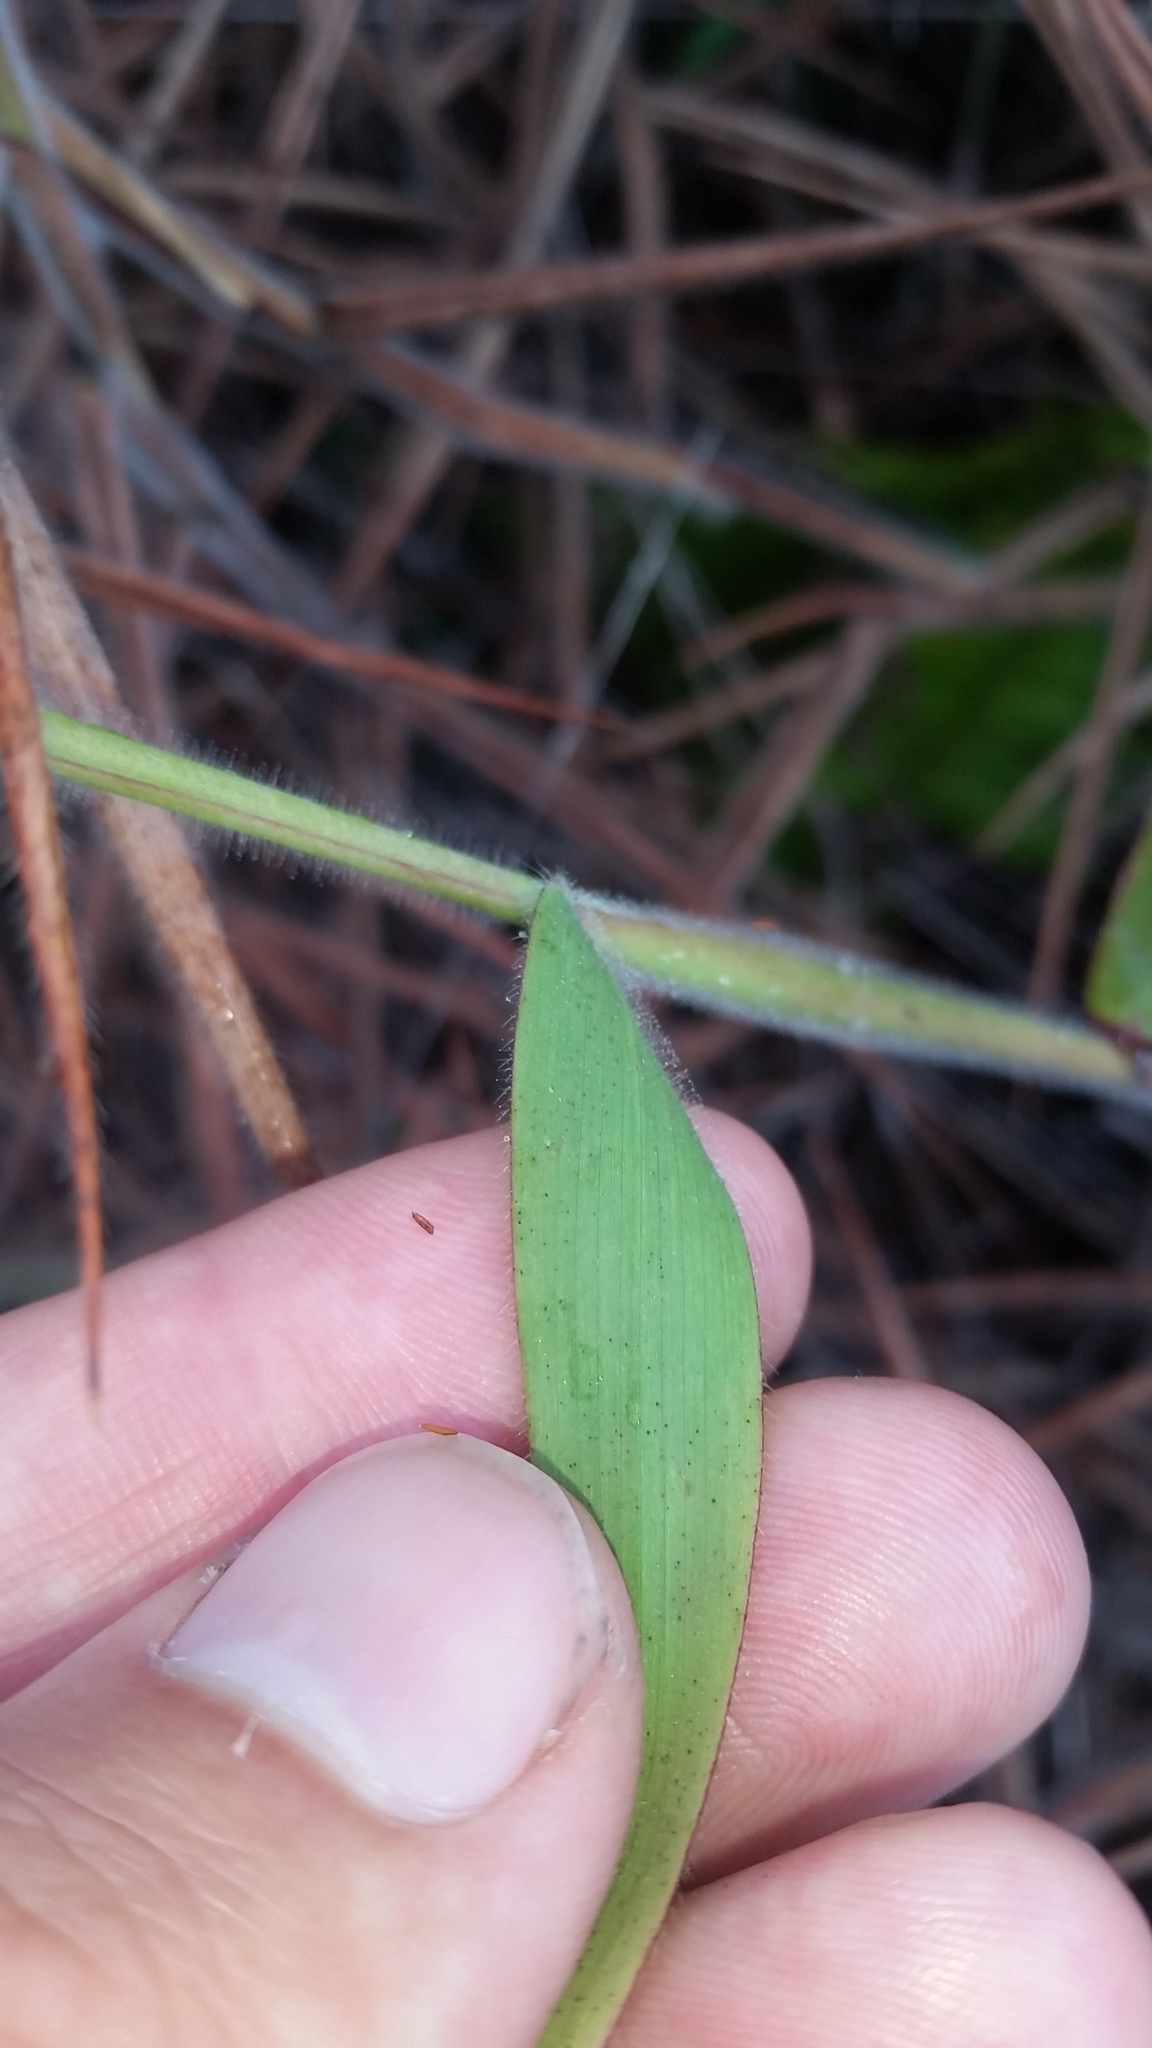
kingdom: Plantae
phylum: Tracheophyta
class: Liliopsida
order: Poales
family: Poaceae
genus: Melinis
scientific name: Melinis minutiflora
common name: Molassesgrass
